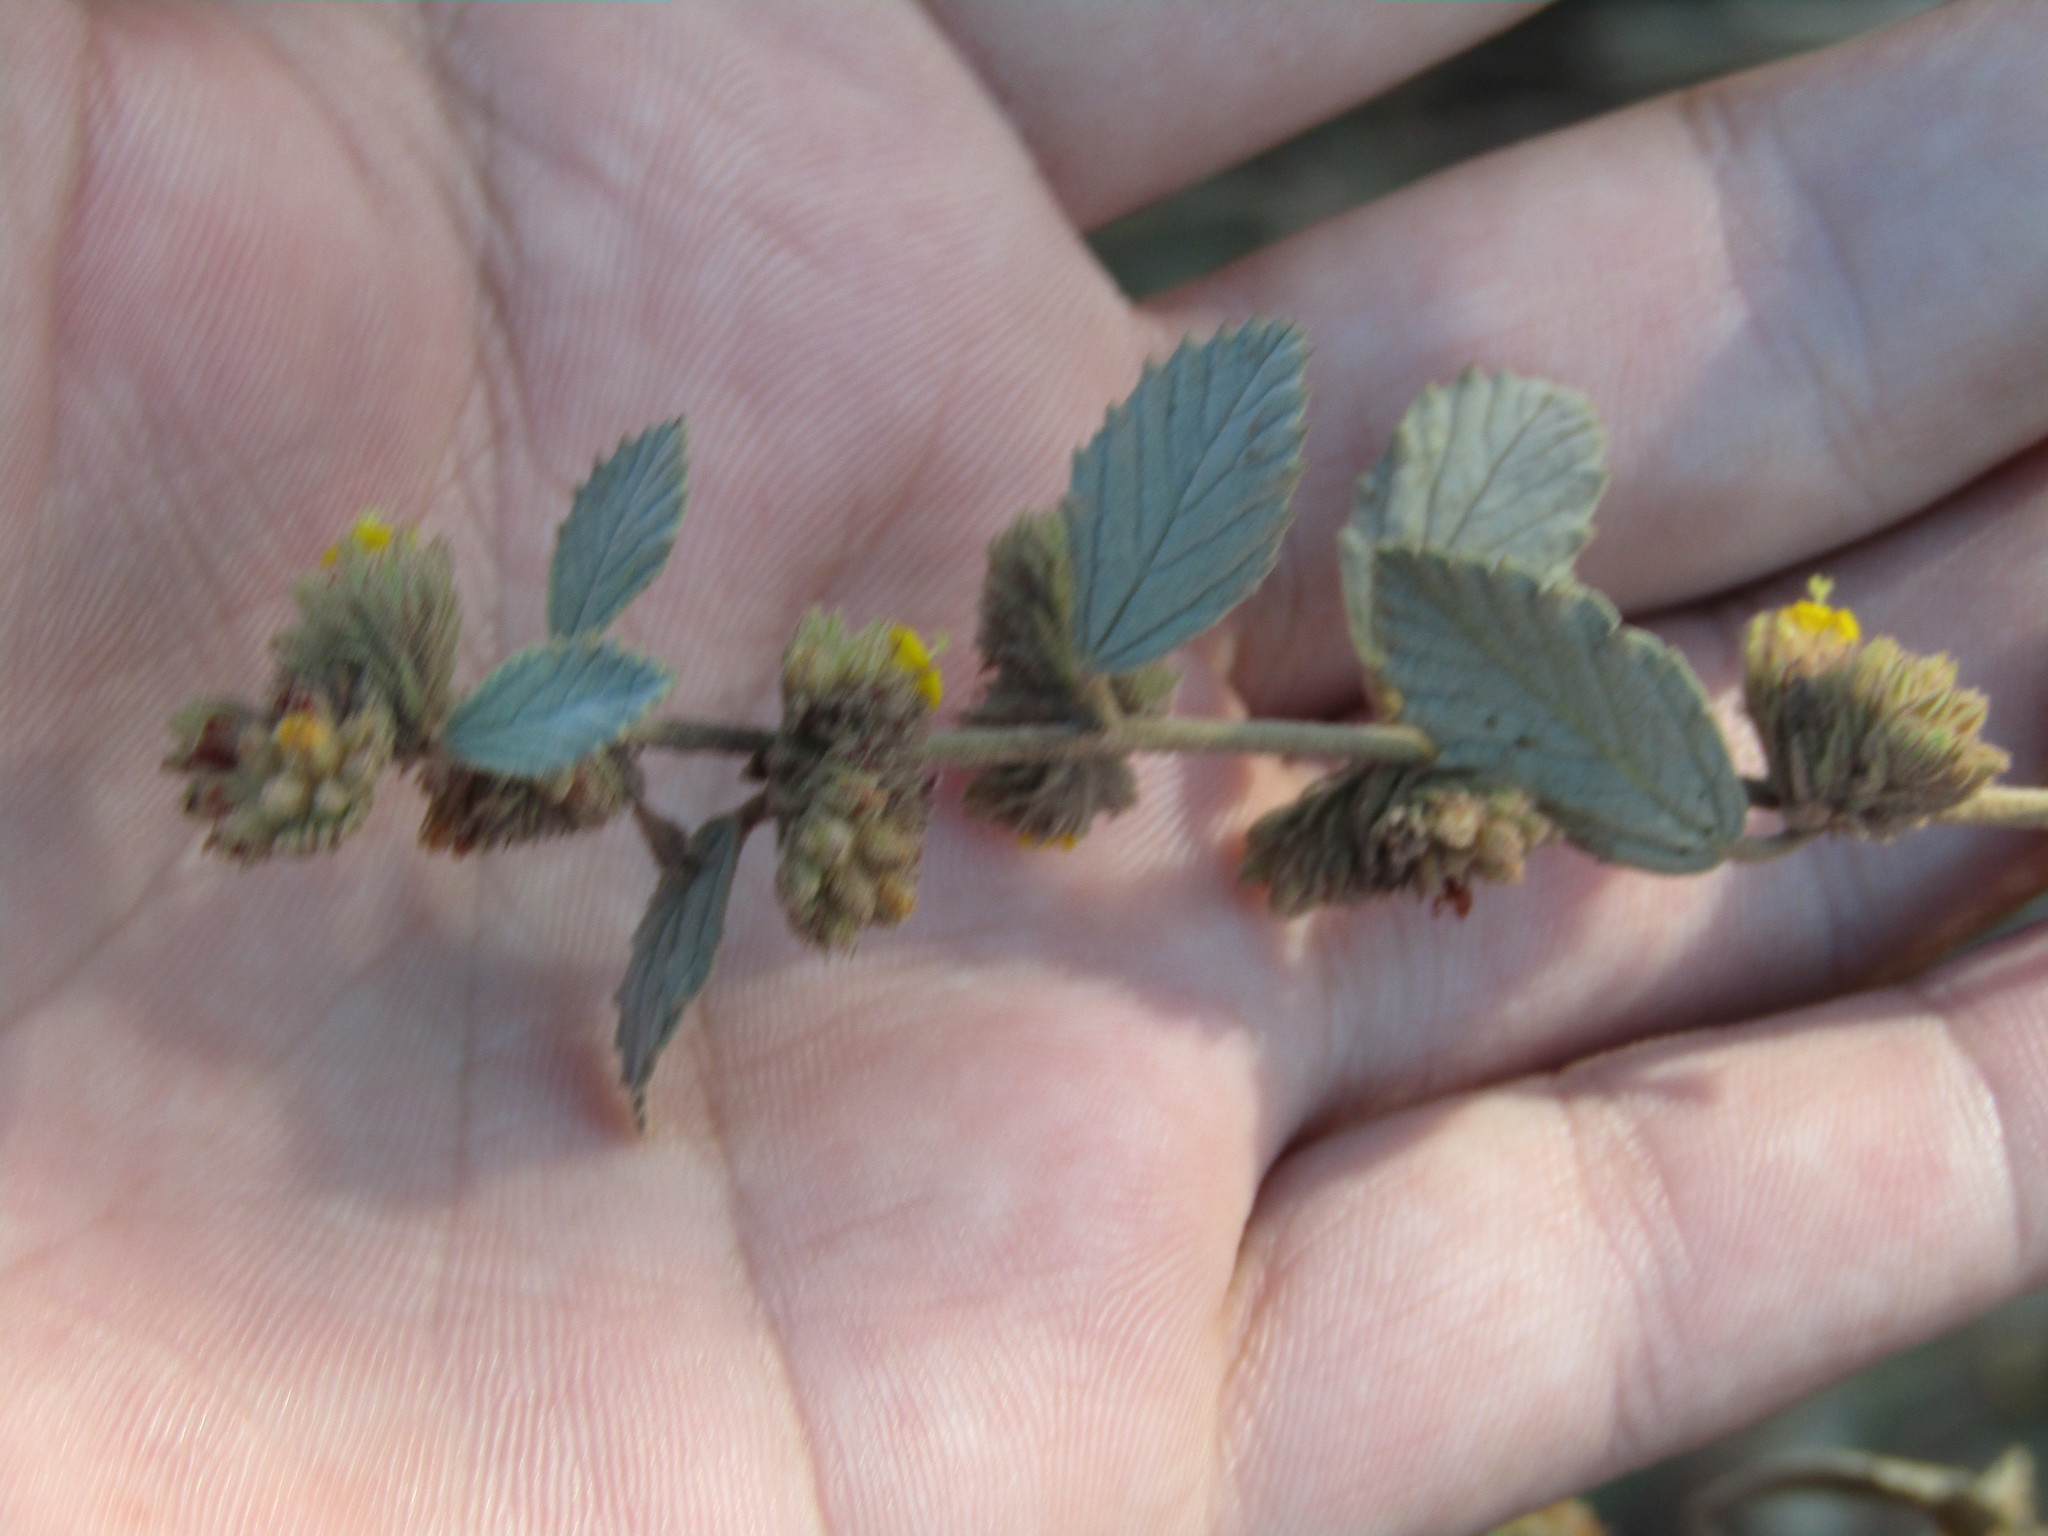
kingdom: Plantae
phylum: Tracheophyta
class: Magnoliopsida
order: Malvales
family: Malvaceae
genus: Waltheria
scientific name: Waltheria rotundifolia
